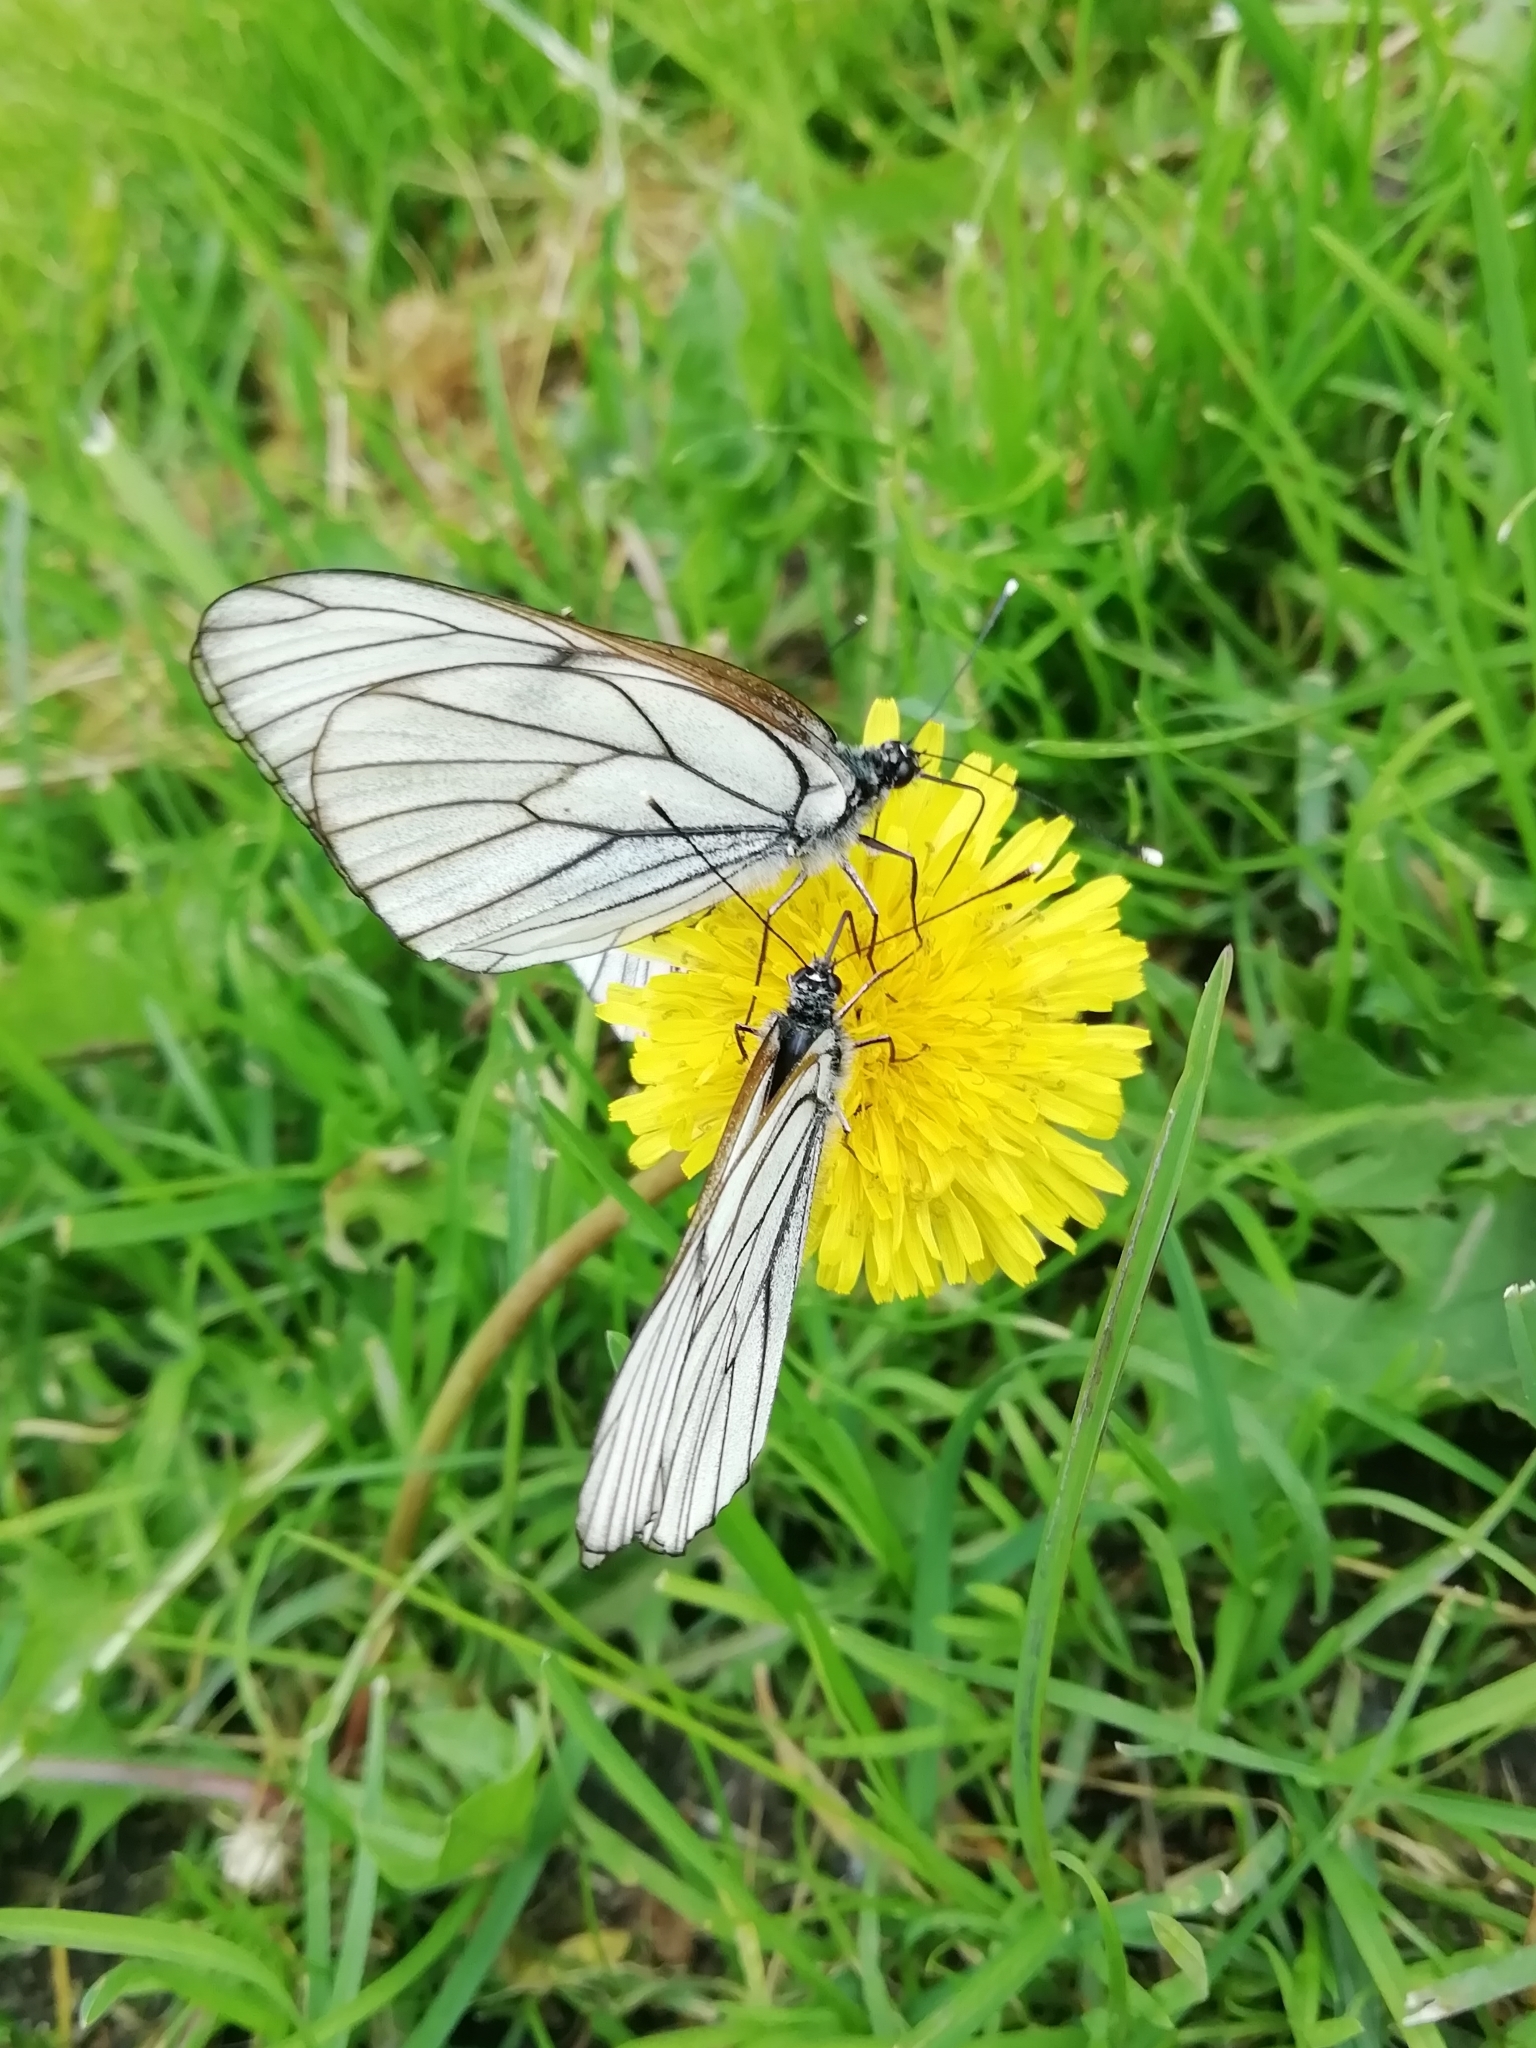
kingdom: Animalia
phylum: Arthropoda
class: Insecta
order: Lepidoptera
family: Pieridae
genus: Aporia
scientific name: Aporia crataegi
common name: Black-veined white
